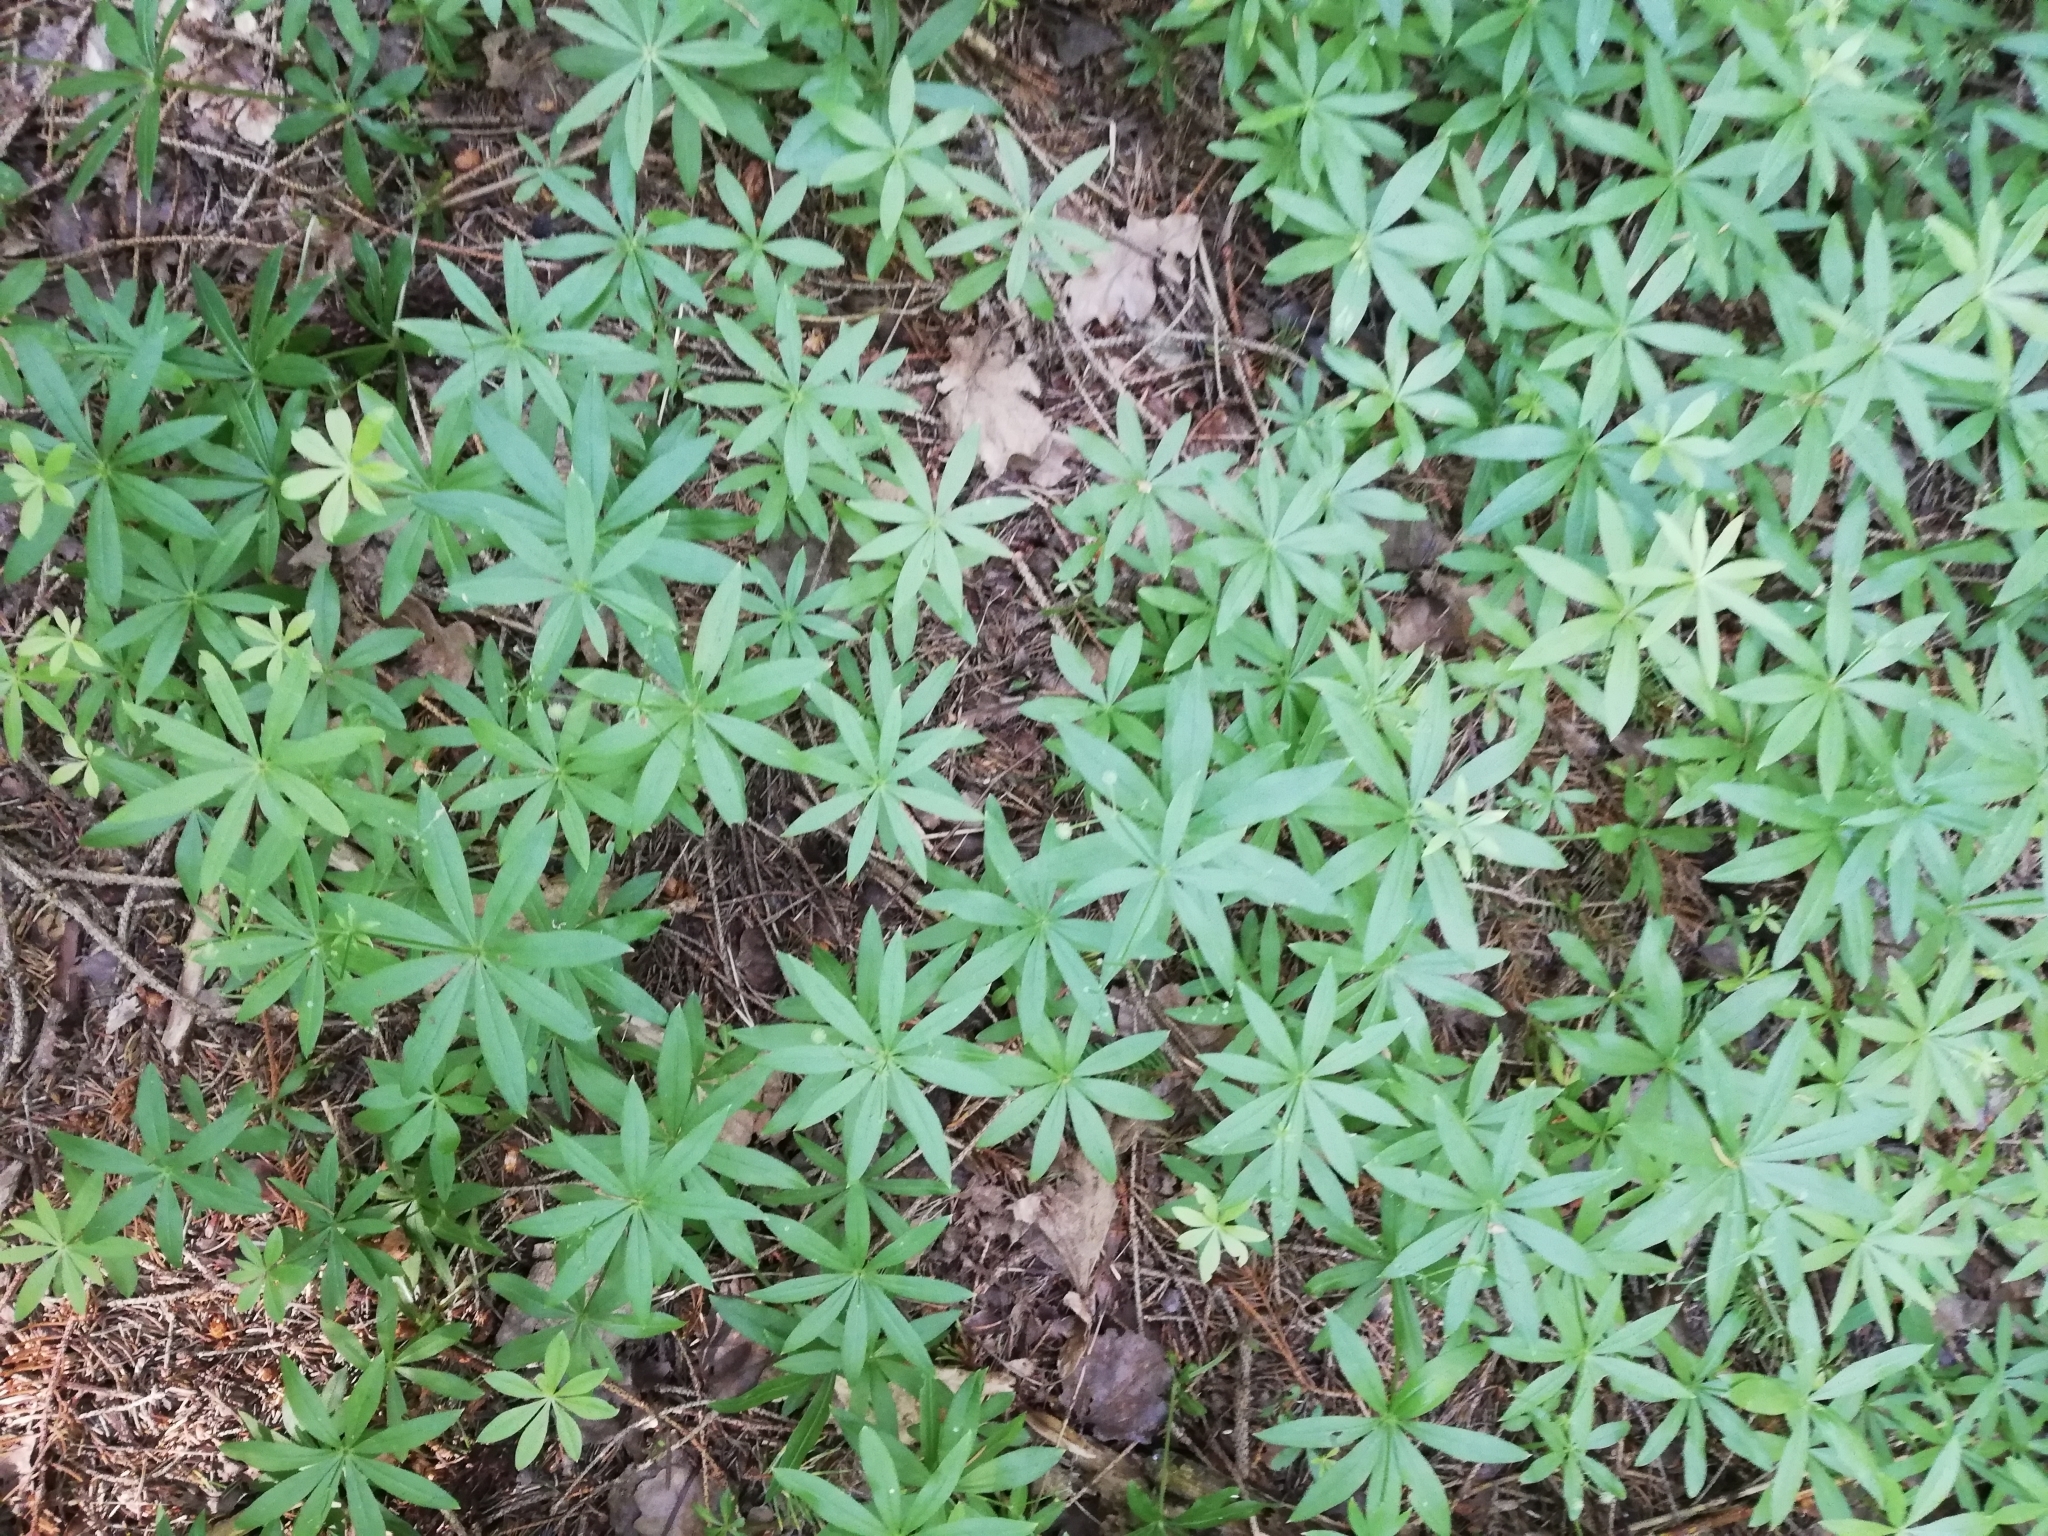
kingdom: Plantae
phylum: Tracheophyta
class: Magnoliopsida
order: Gentianales
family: Rubiaceae
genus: Galium
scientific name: Galium odoratum
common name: Sweet woodruff
